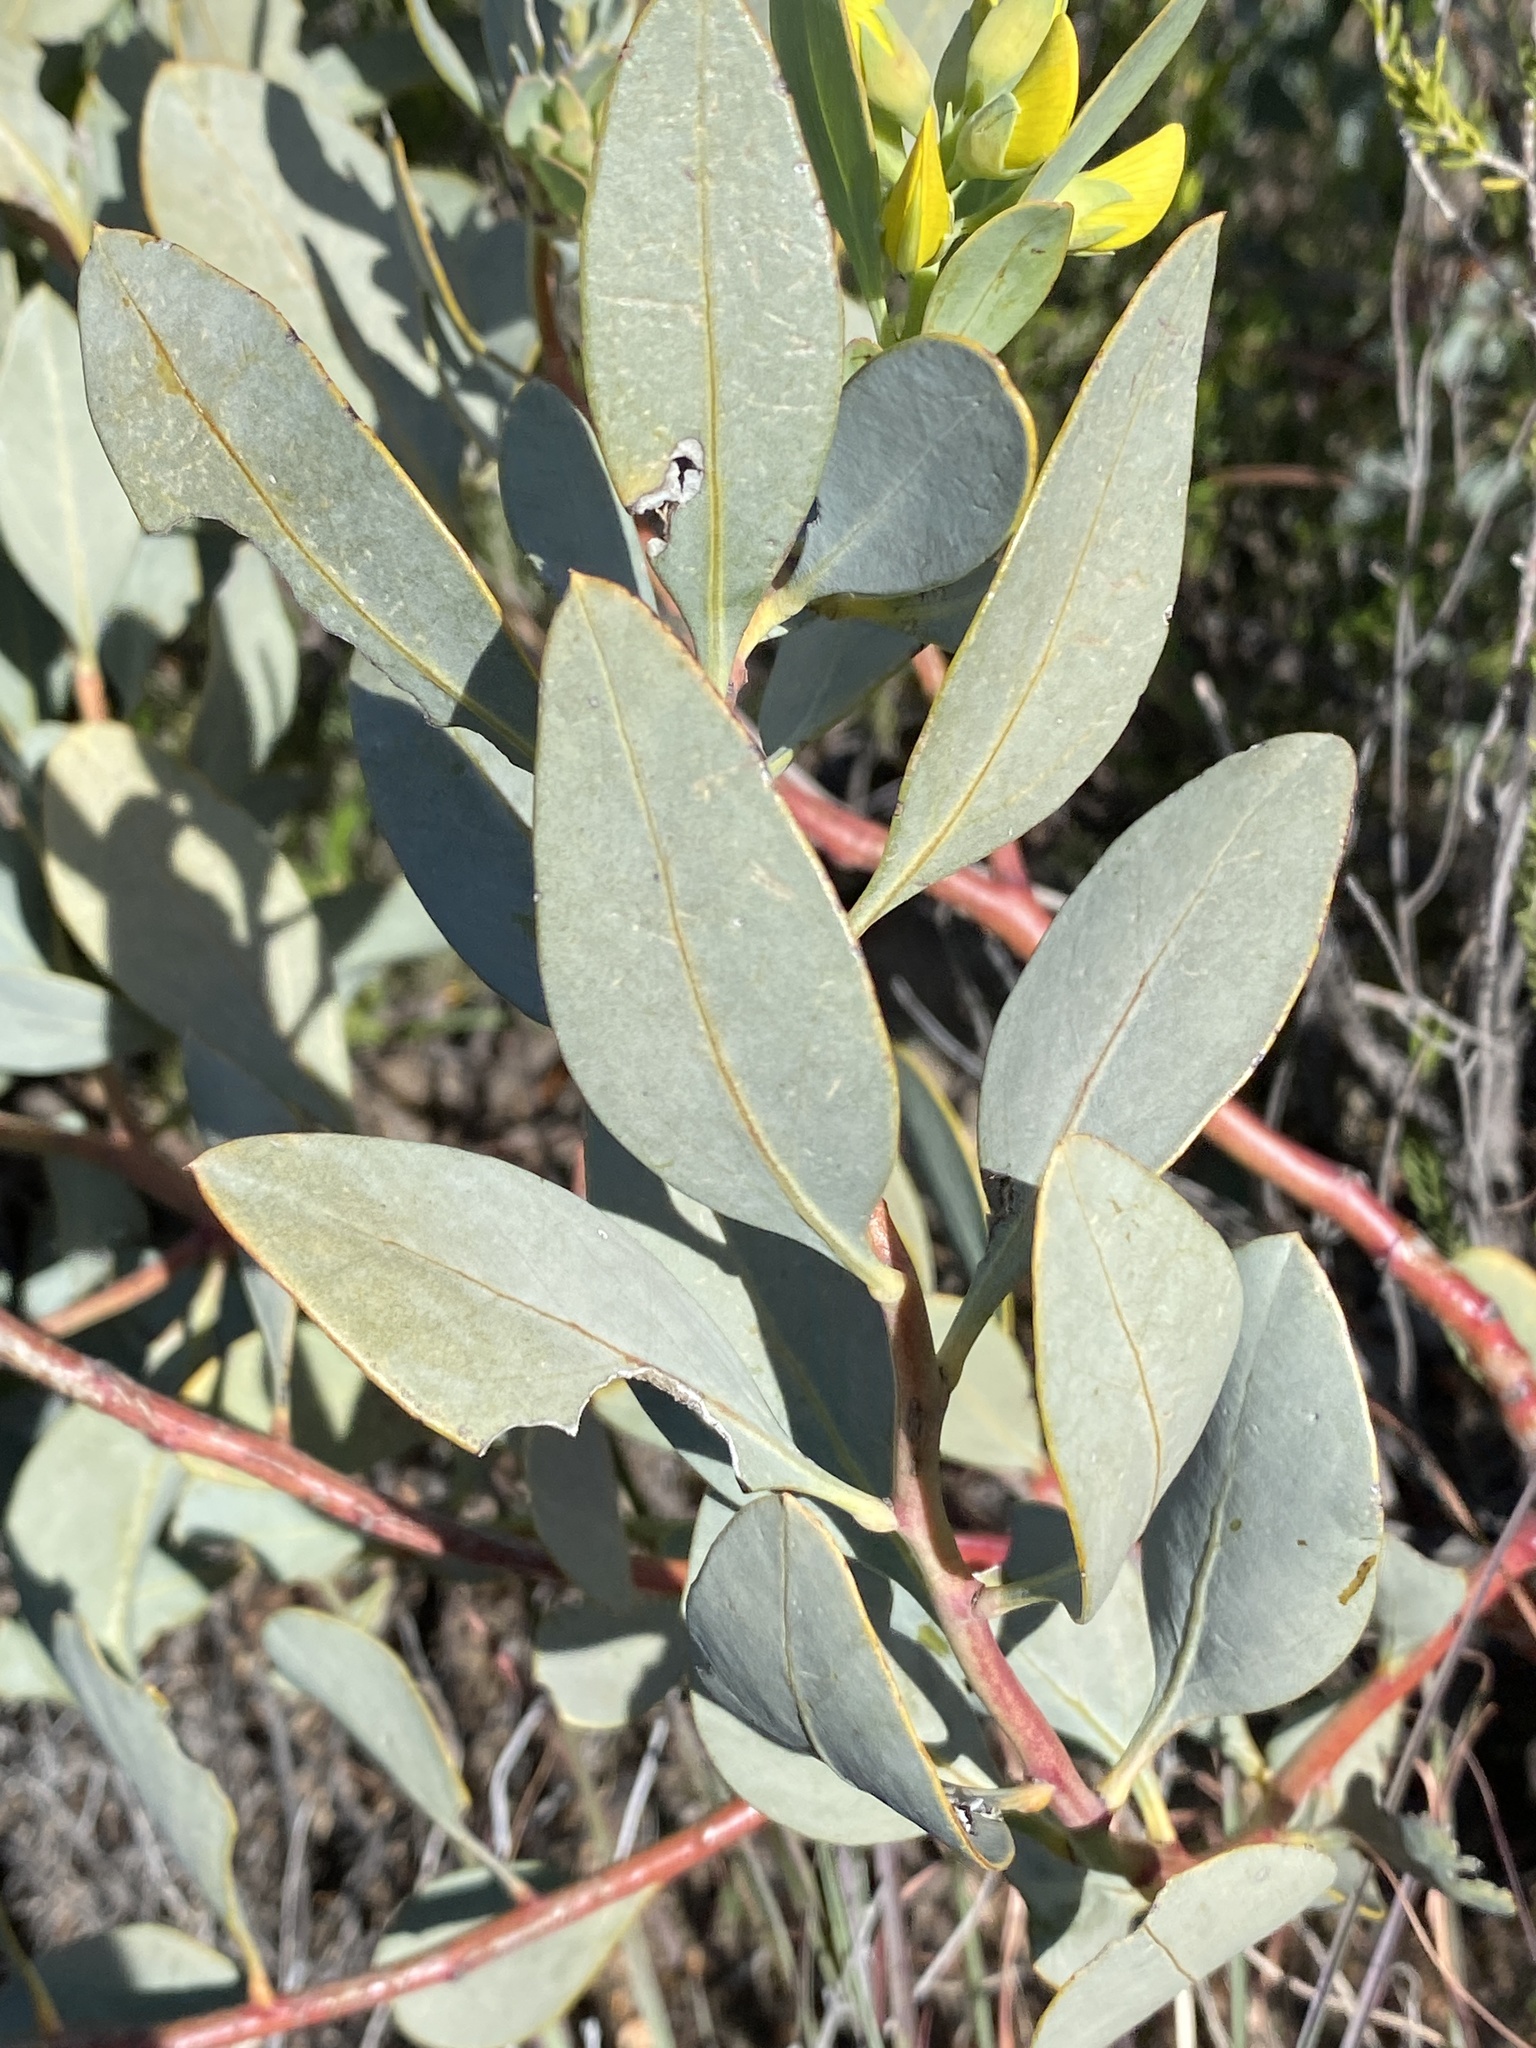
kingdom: Plantae
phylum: Tracheophyta
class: Magnoliopsida
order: Fabales
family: Fabaceae
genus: Rafnia
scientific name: Rafnia racemosa
